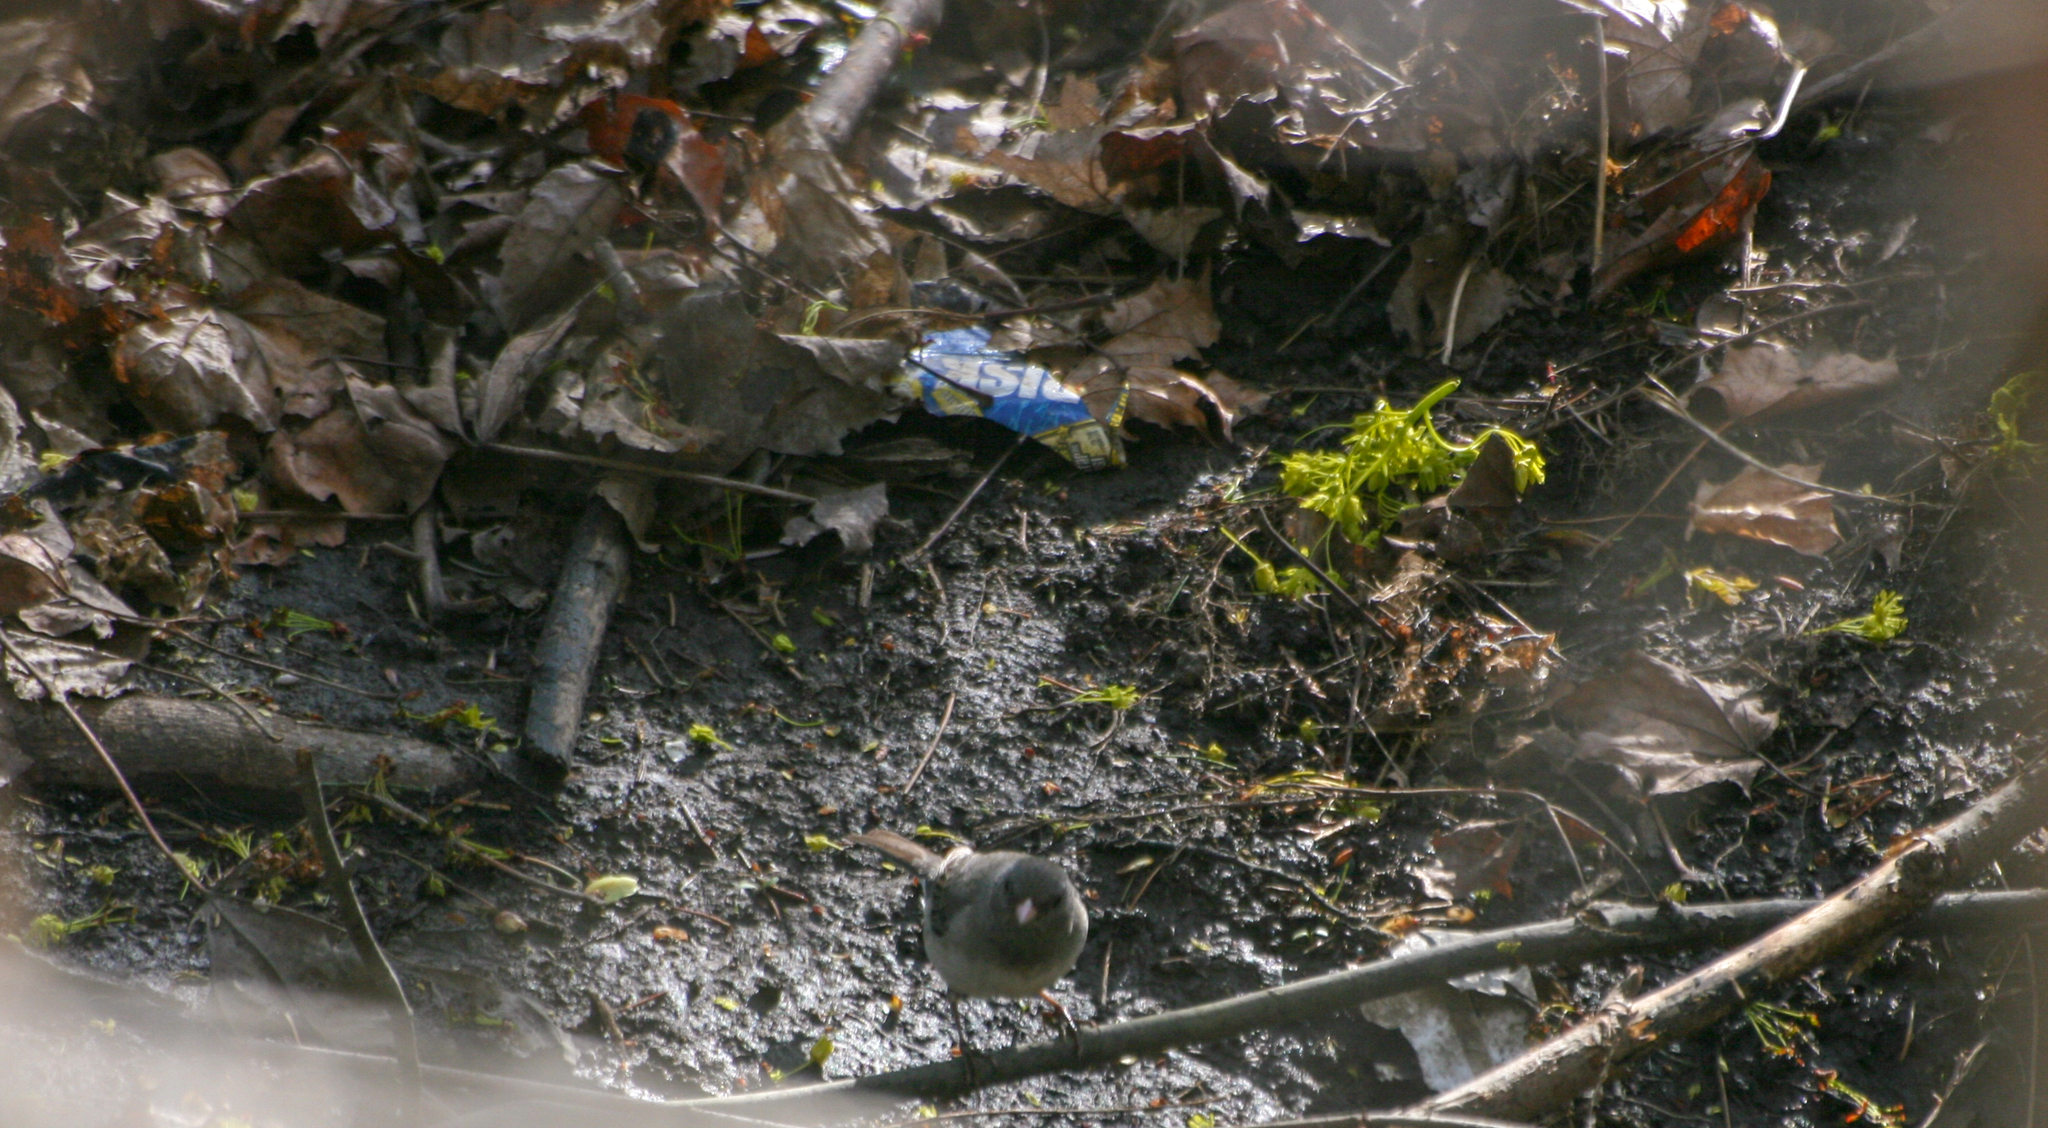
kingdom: Animalia
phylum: Chordata
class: Aves
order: Passeriformes
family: Passerellidae
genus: Junco
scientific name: Junco hyemalis
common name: Dark-eyed junco
